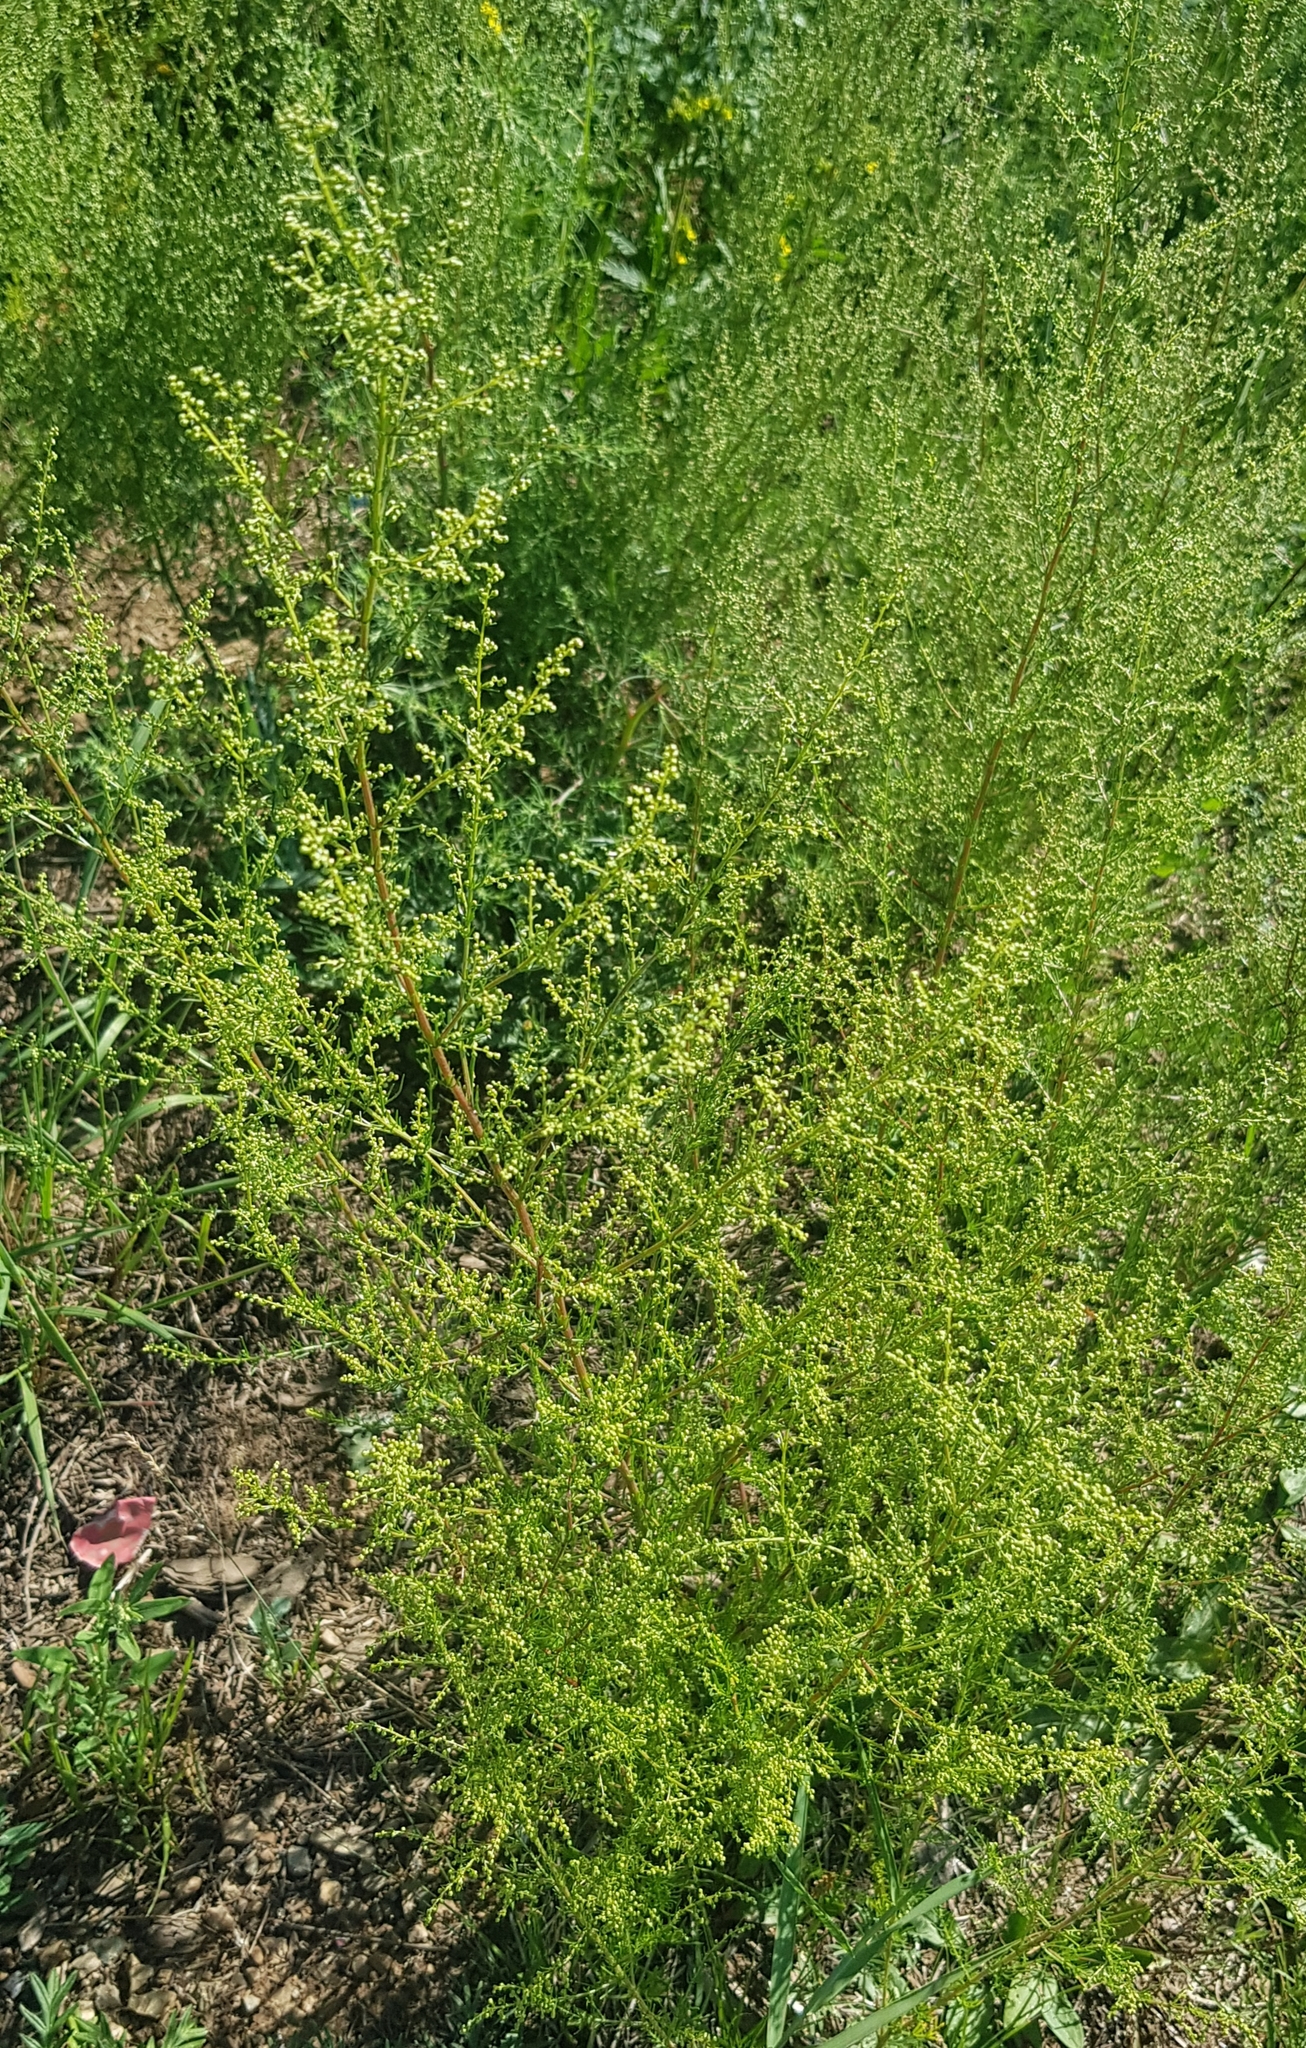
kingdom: Plantae
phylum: Tracheophyta
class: Magnoliopsida
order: Asterales
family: Asteraceae
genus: Artemisia
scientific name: Artemisia scoparia
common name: Redstem wormwood
